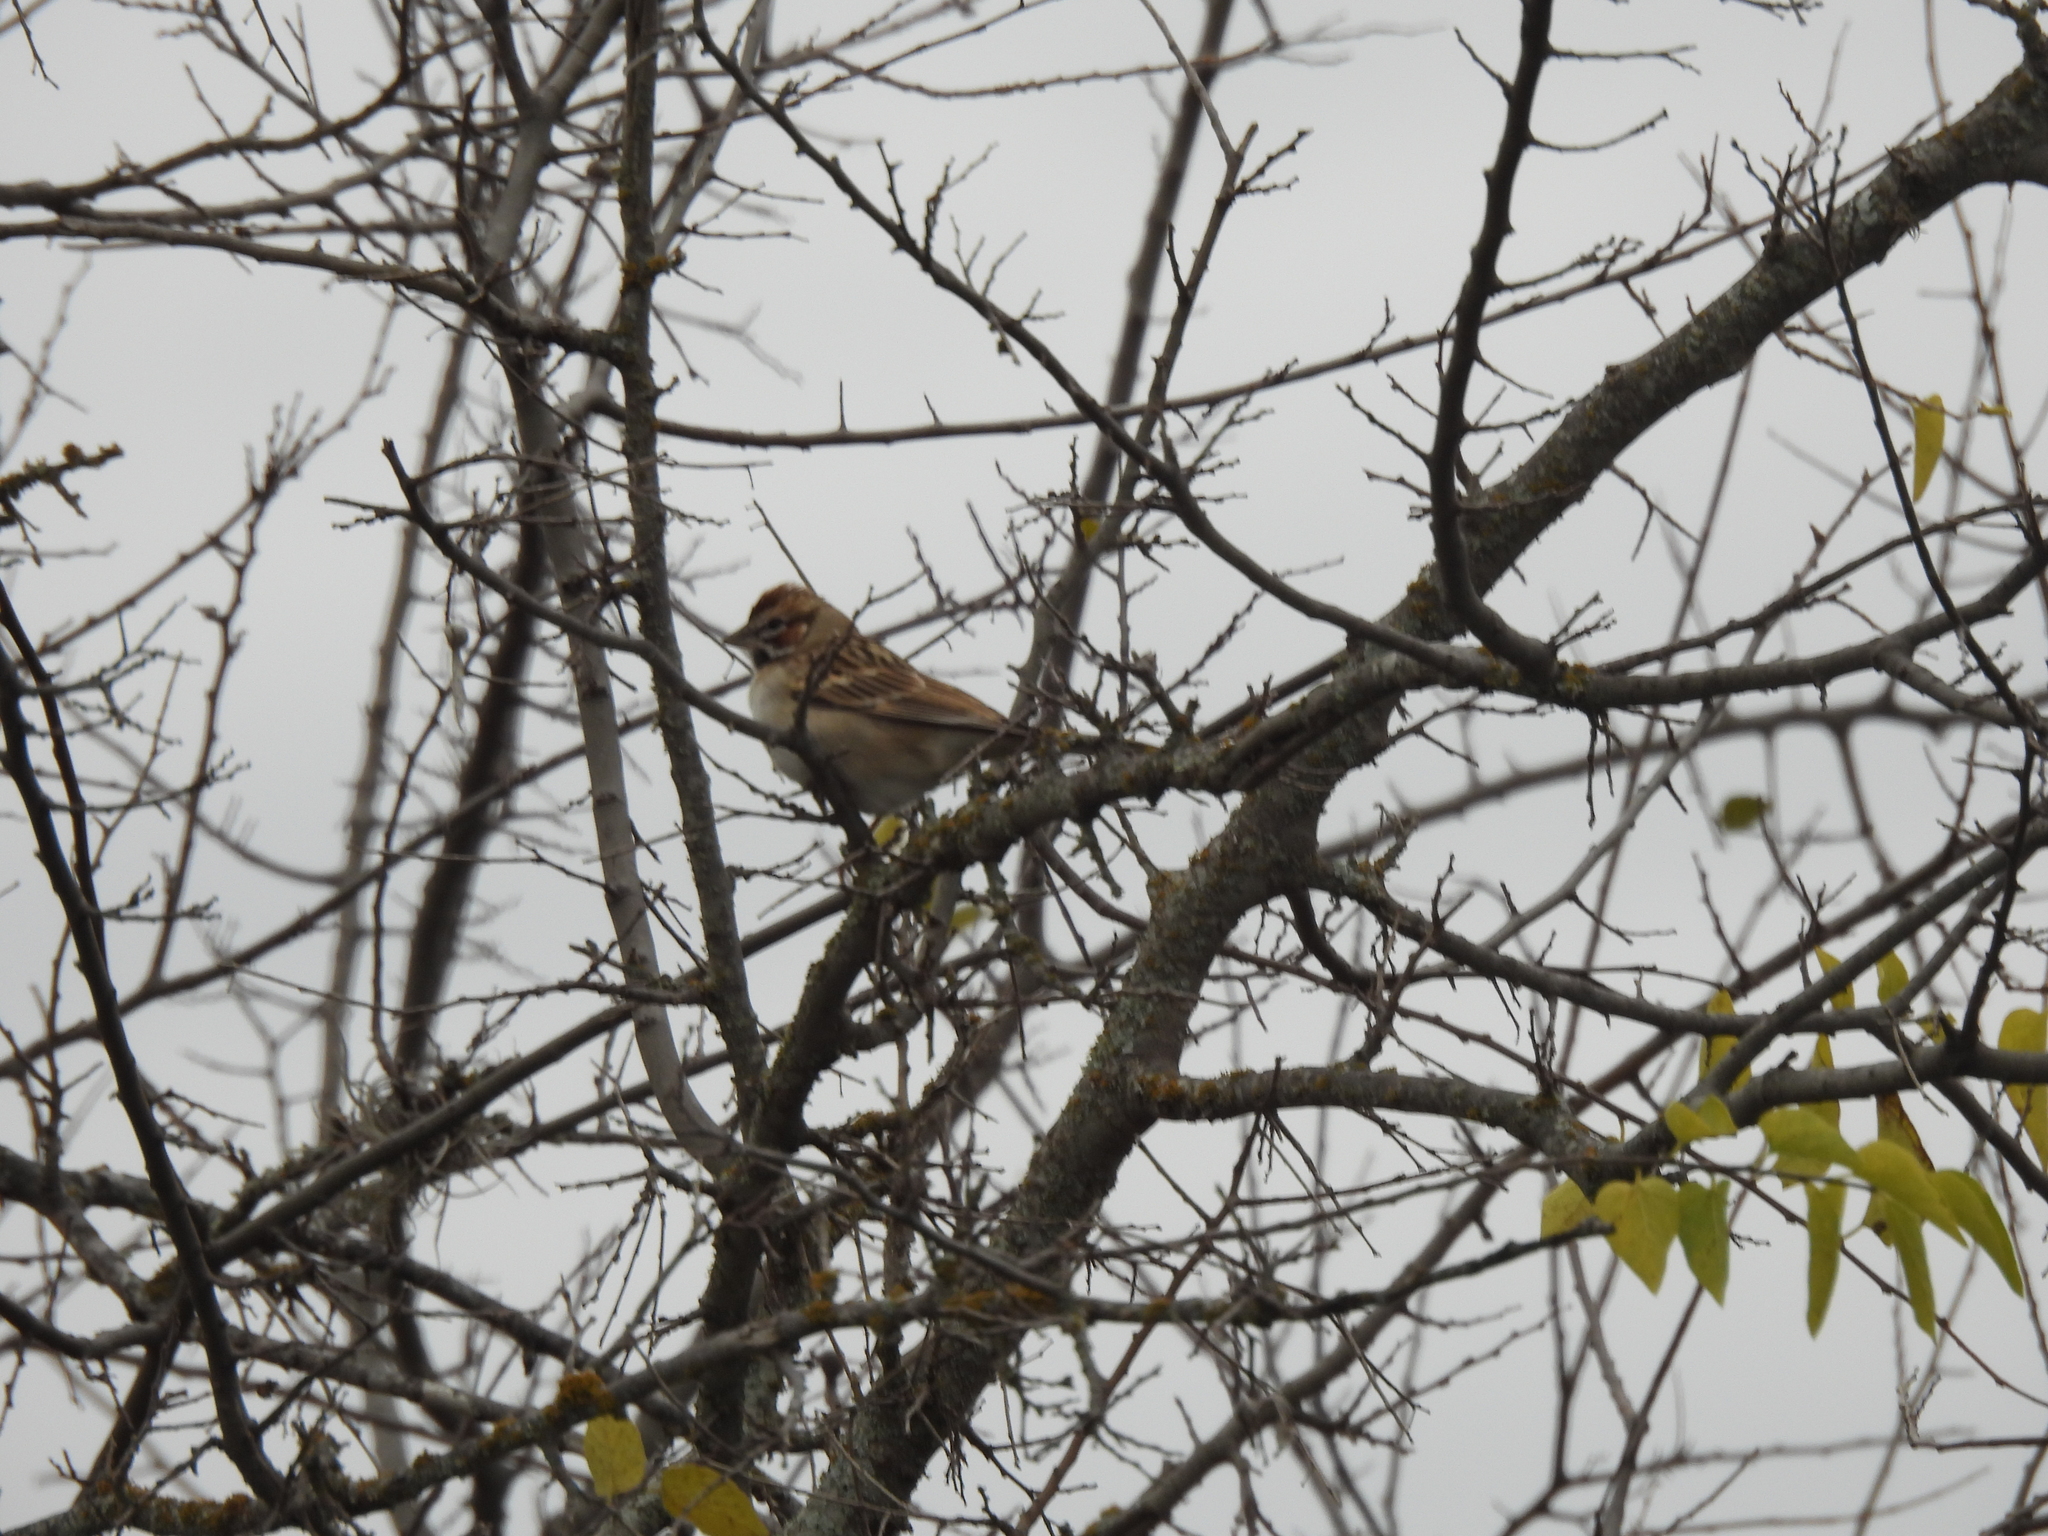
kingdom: Animalia
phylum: Chordata
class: Aves
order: Passeriformes
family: Passerellidae
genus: Chondestes
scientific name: Chondestes grammacus
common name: Lark sparrow
